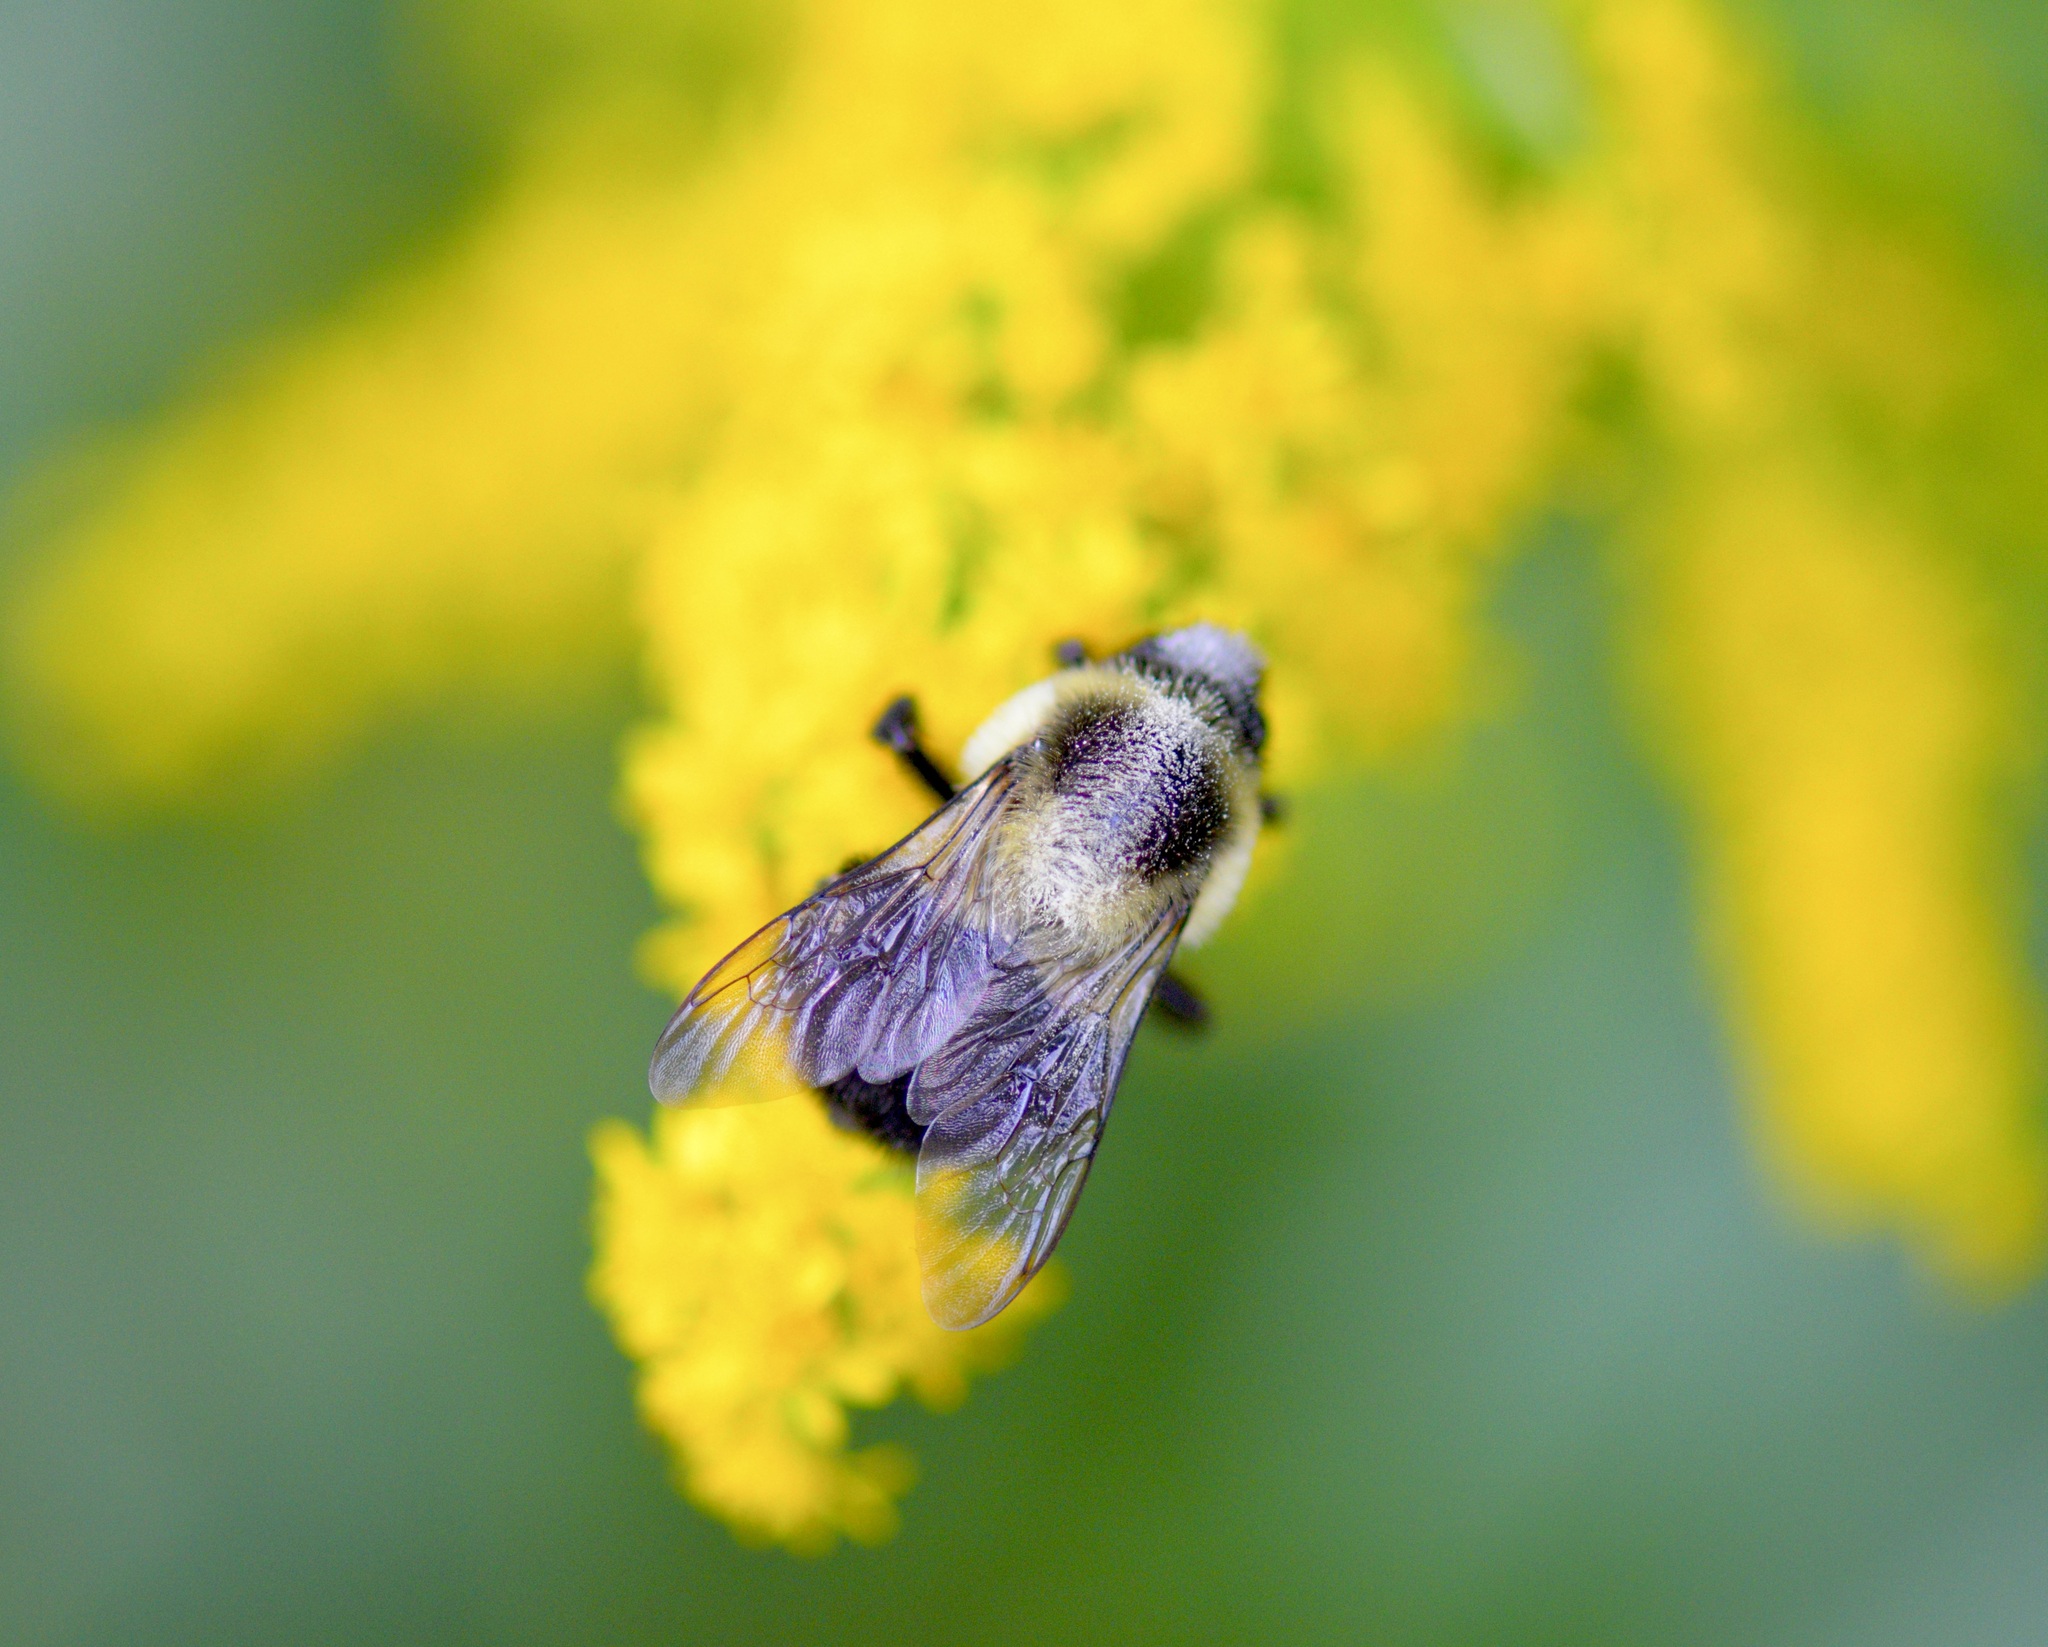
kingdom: Animalia
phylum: Arthropoda
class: Insecta
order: Hymenoptera
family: Apidae
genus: Bombus
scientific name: Bombus impatiens
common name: Common eastern bumble bee
